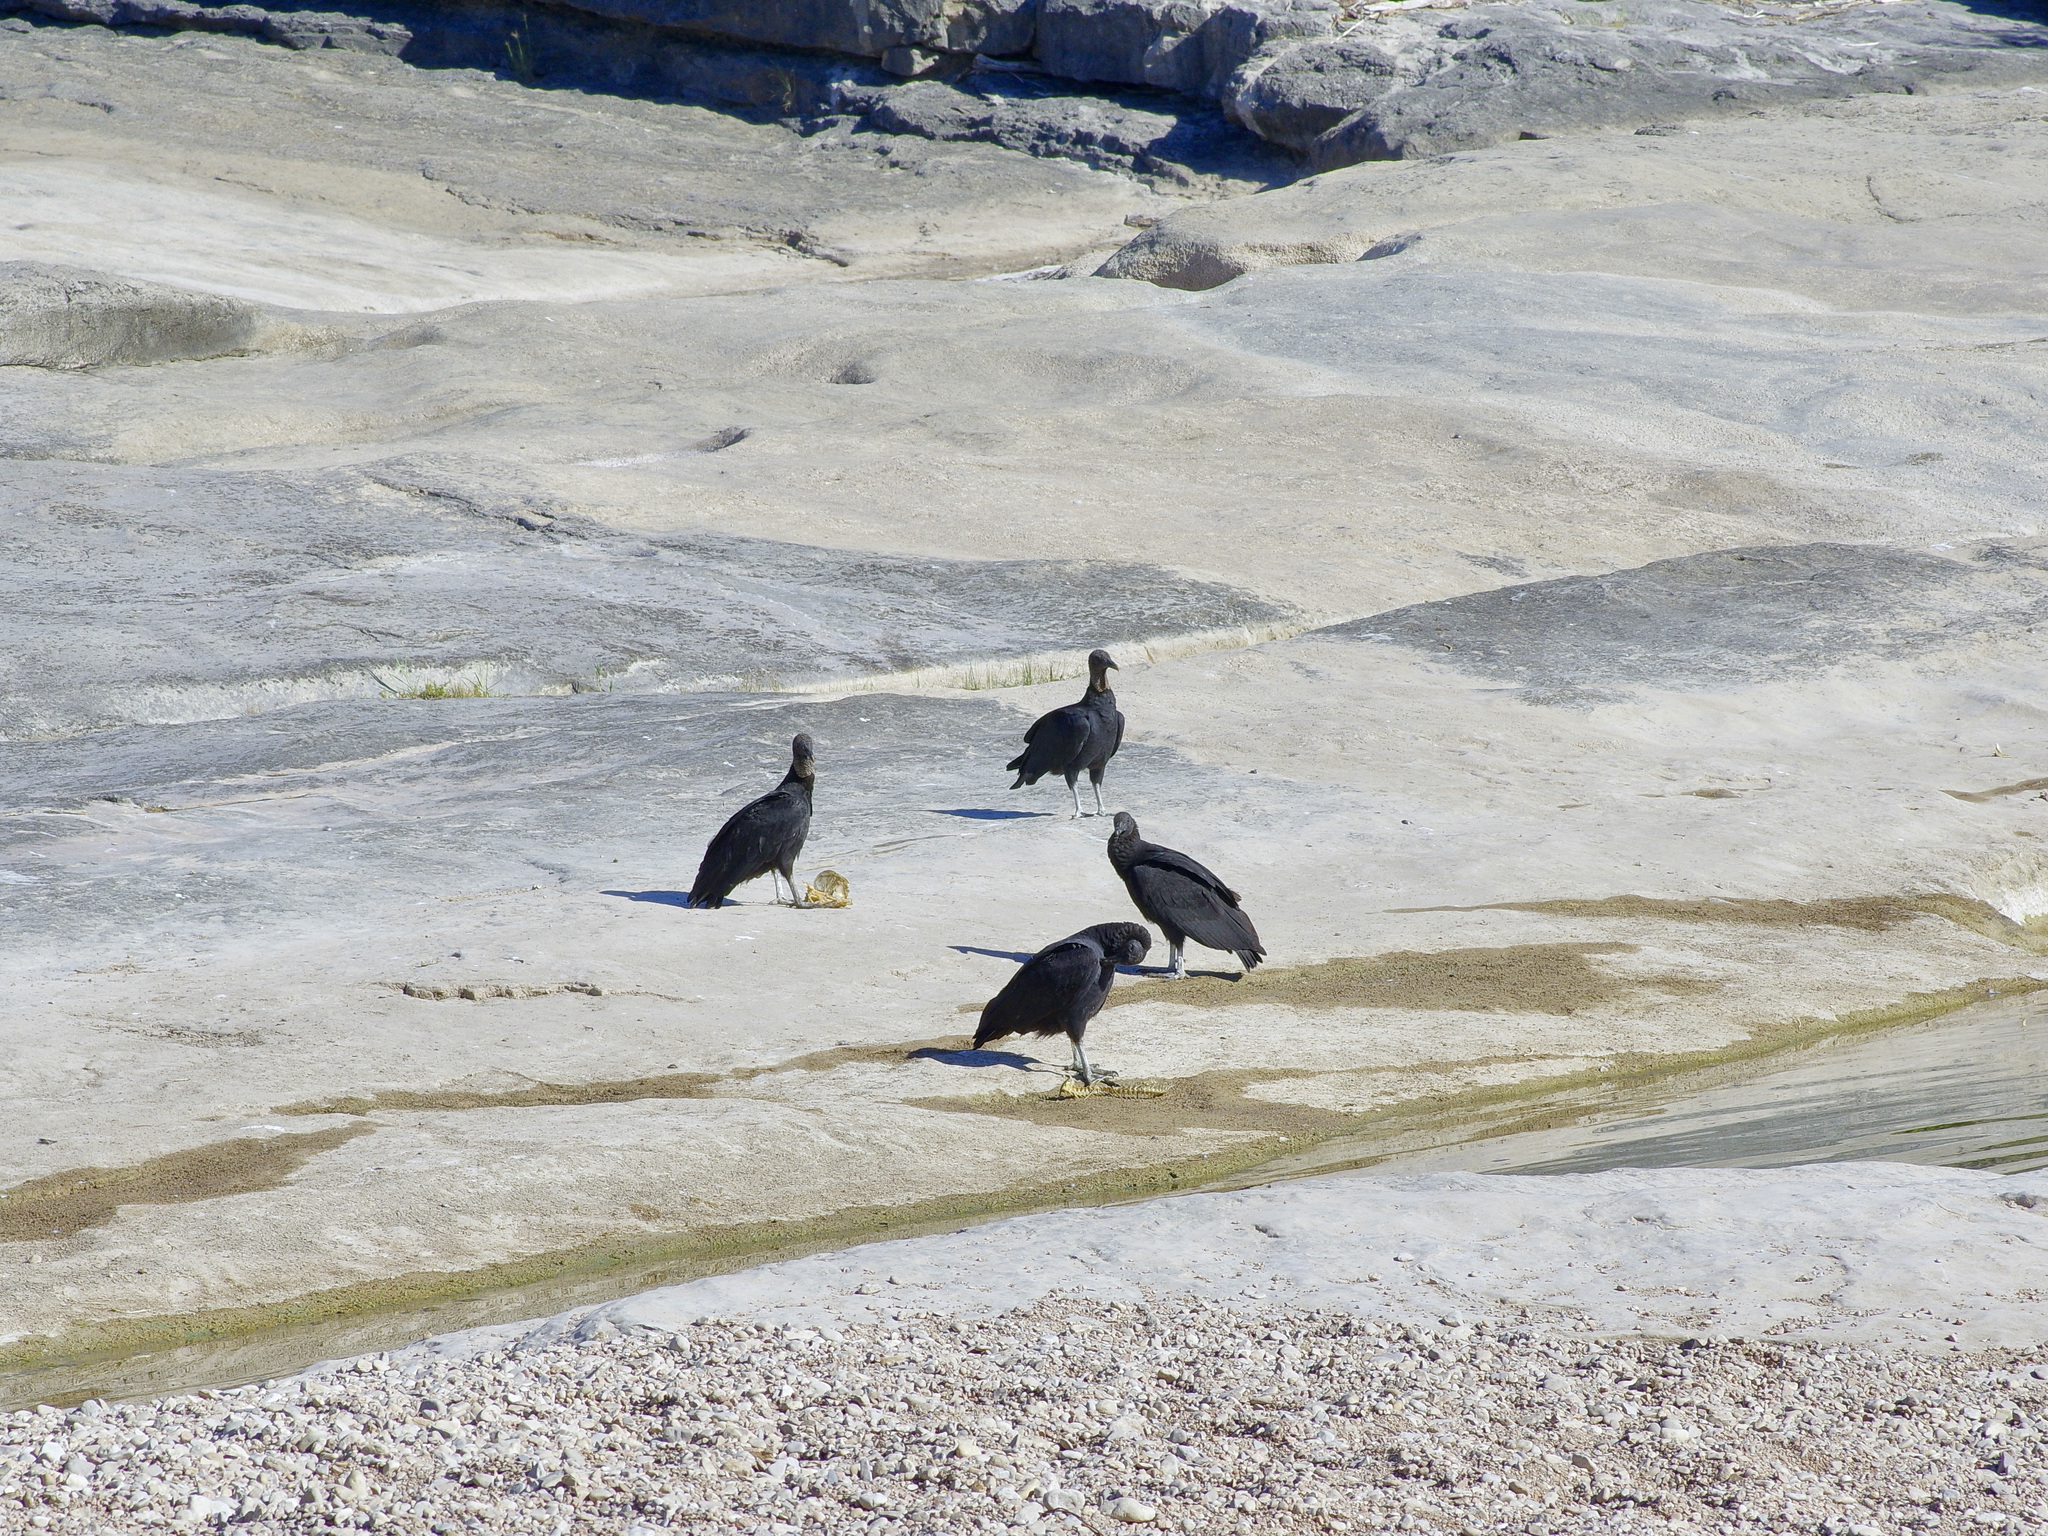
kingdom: Animalia
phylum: Chordata
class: Aves
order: Accipitriformes
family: Cathartidae
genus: Coragyps
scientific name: Coragyps atratus
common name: Black vulture
